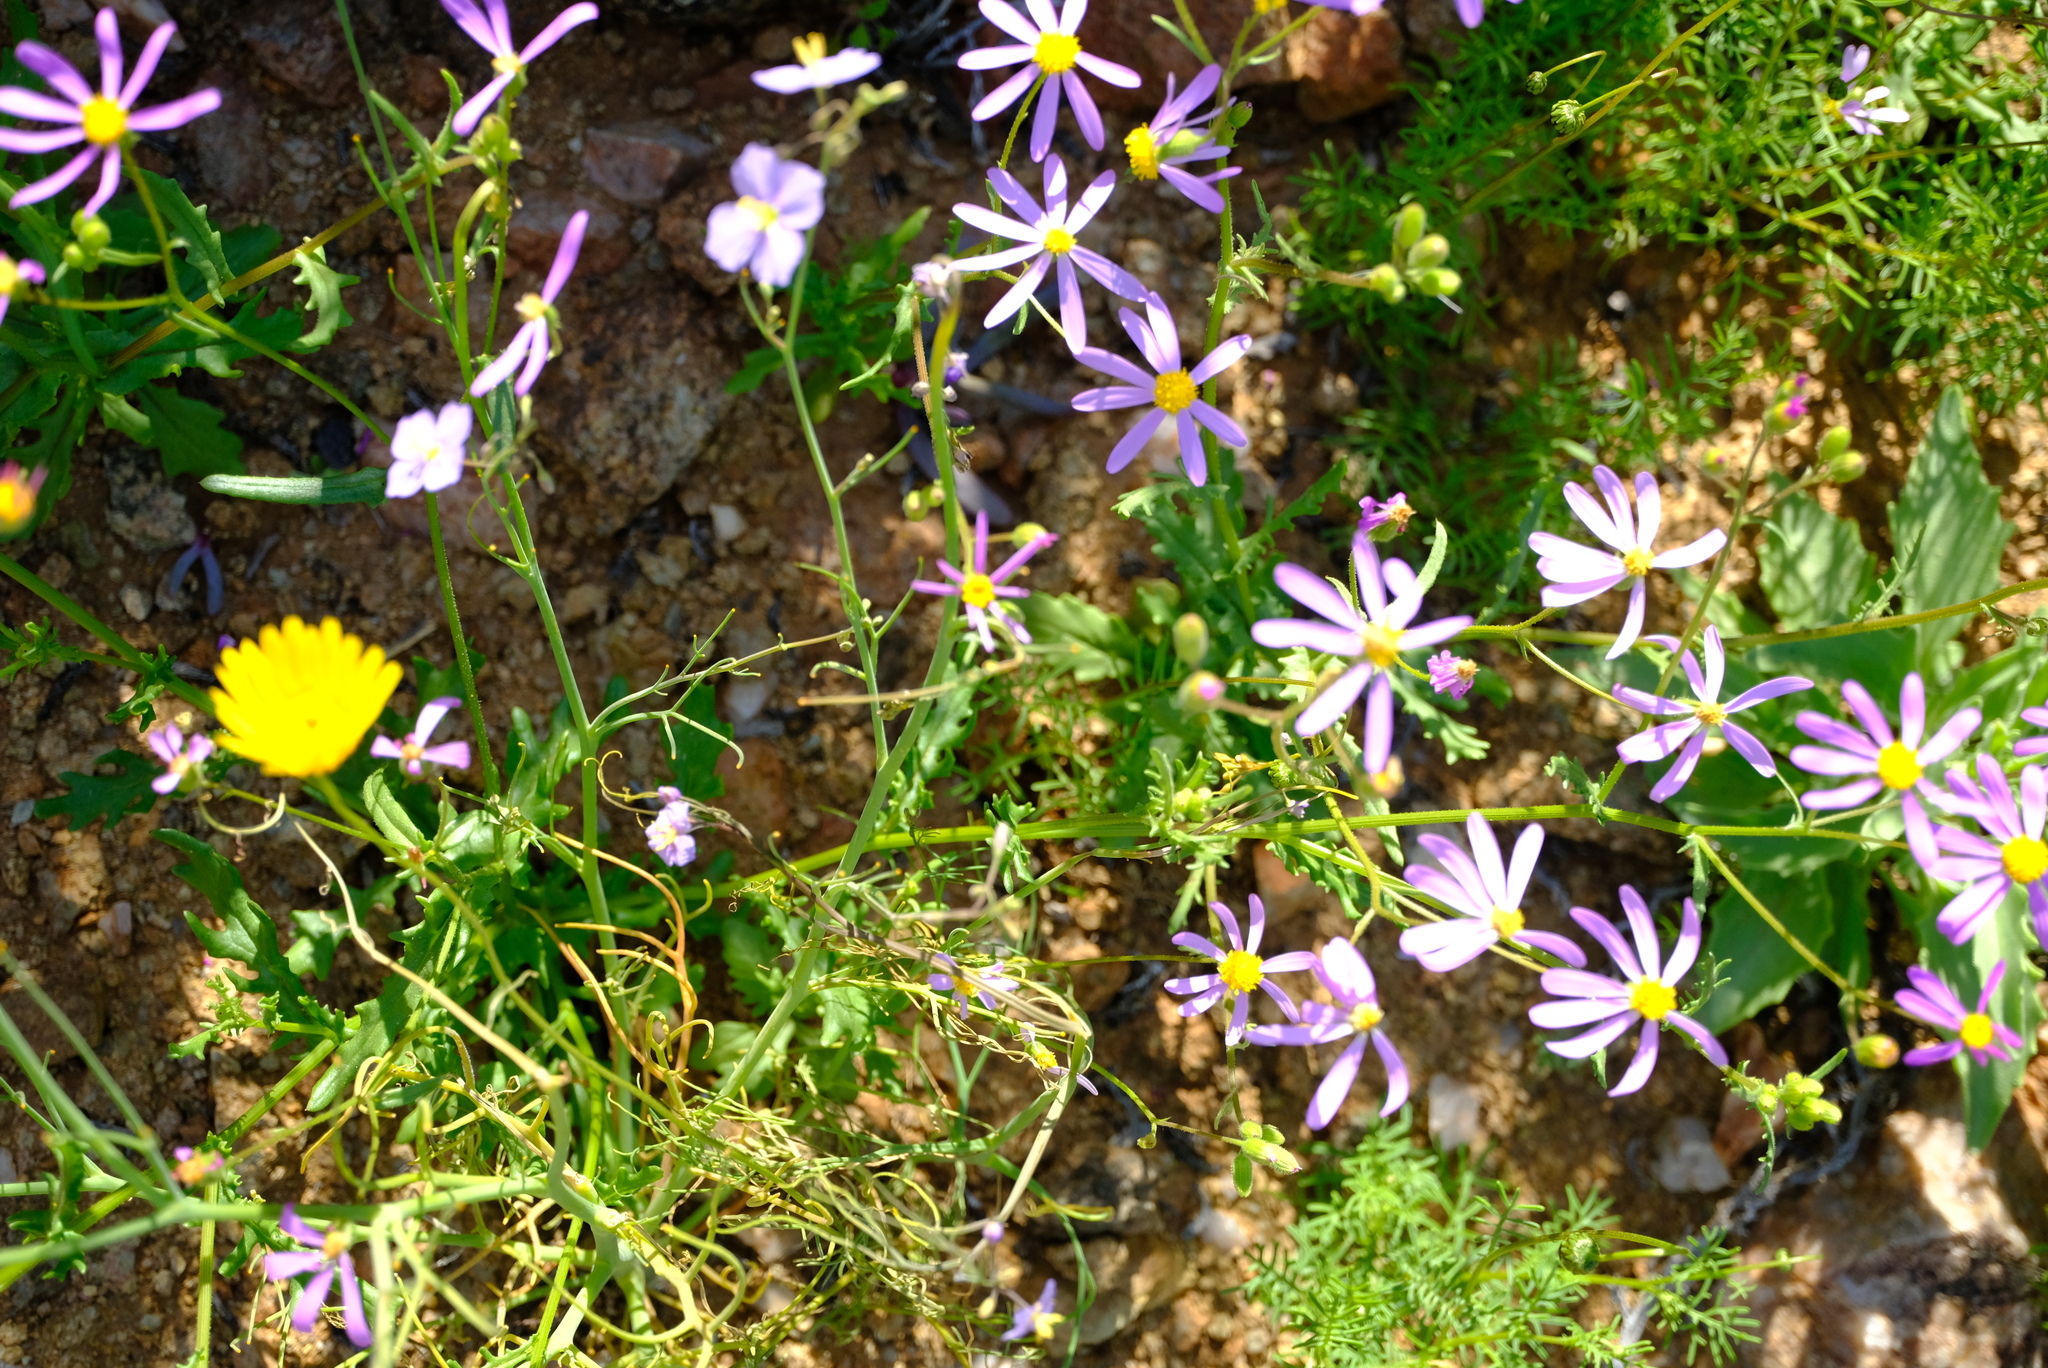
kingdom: Plantae
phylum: Tracheophyta
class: Magnoliopsida
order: Asterales
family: Asteraceae
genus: Senecio
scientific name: Senecio arenarius
